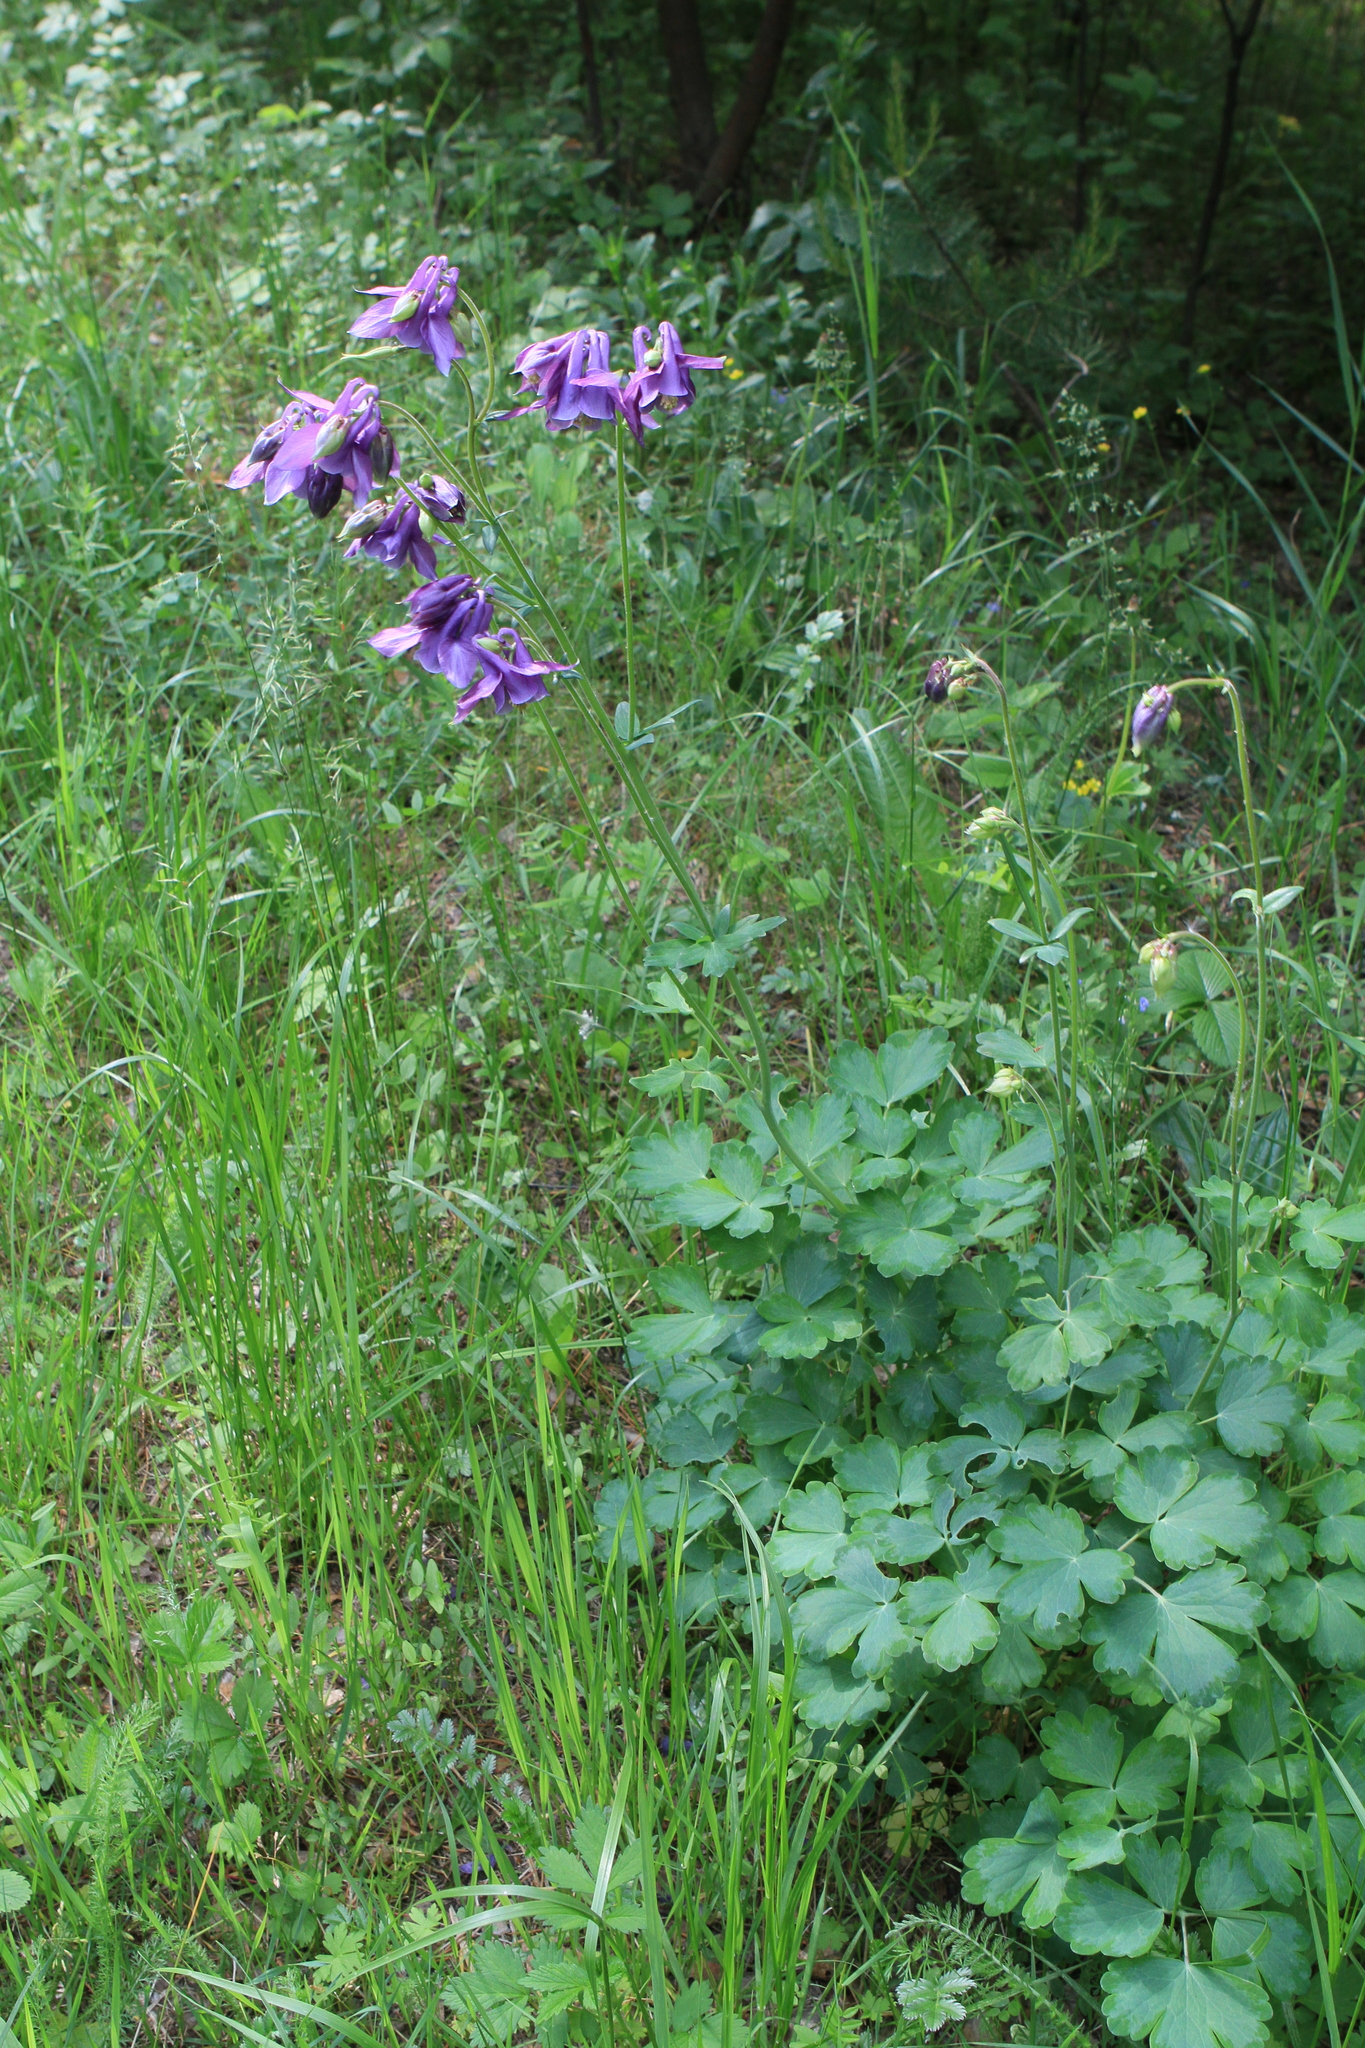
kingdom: Plantae
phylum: Tracheophyta
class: Magnoliopsida
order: Ranunculales
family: Ranunculaceae
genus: Aquilegia
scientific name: Aquilegia vulgaris
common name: Columbine
